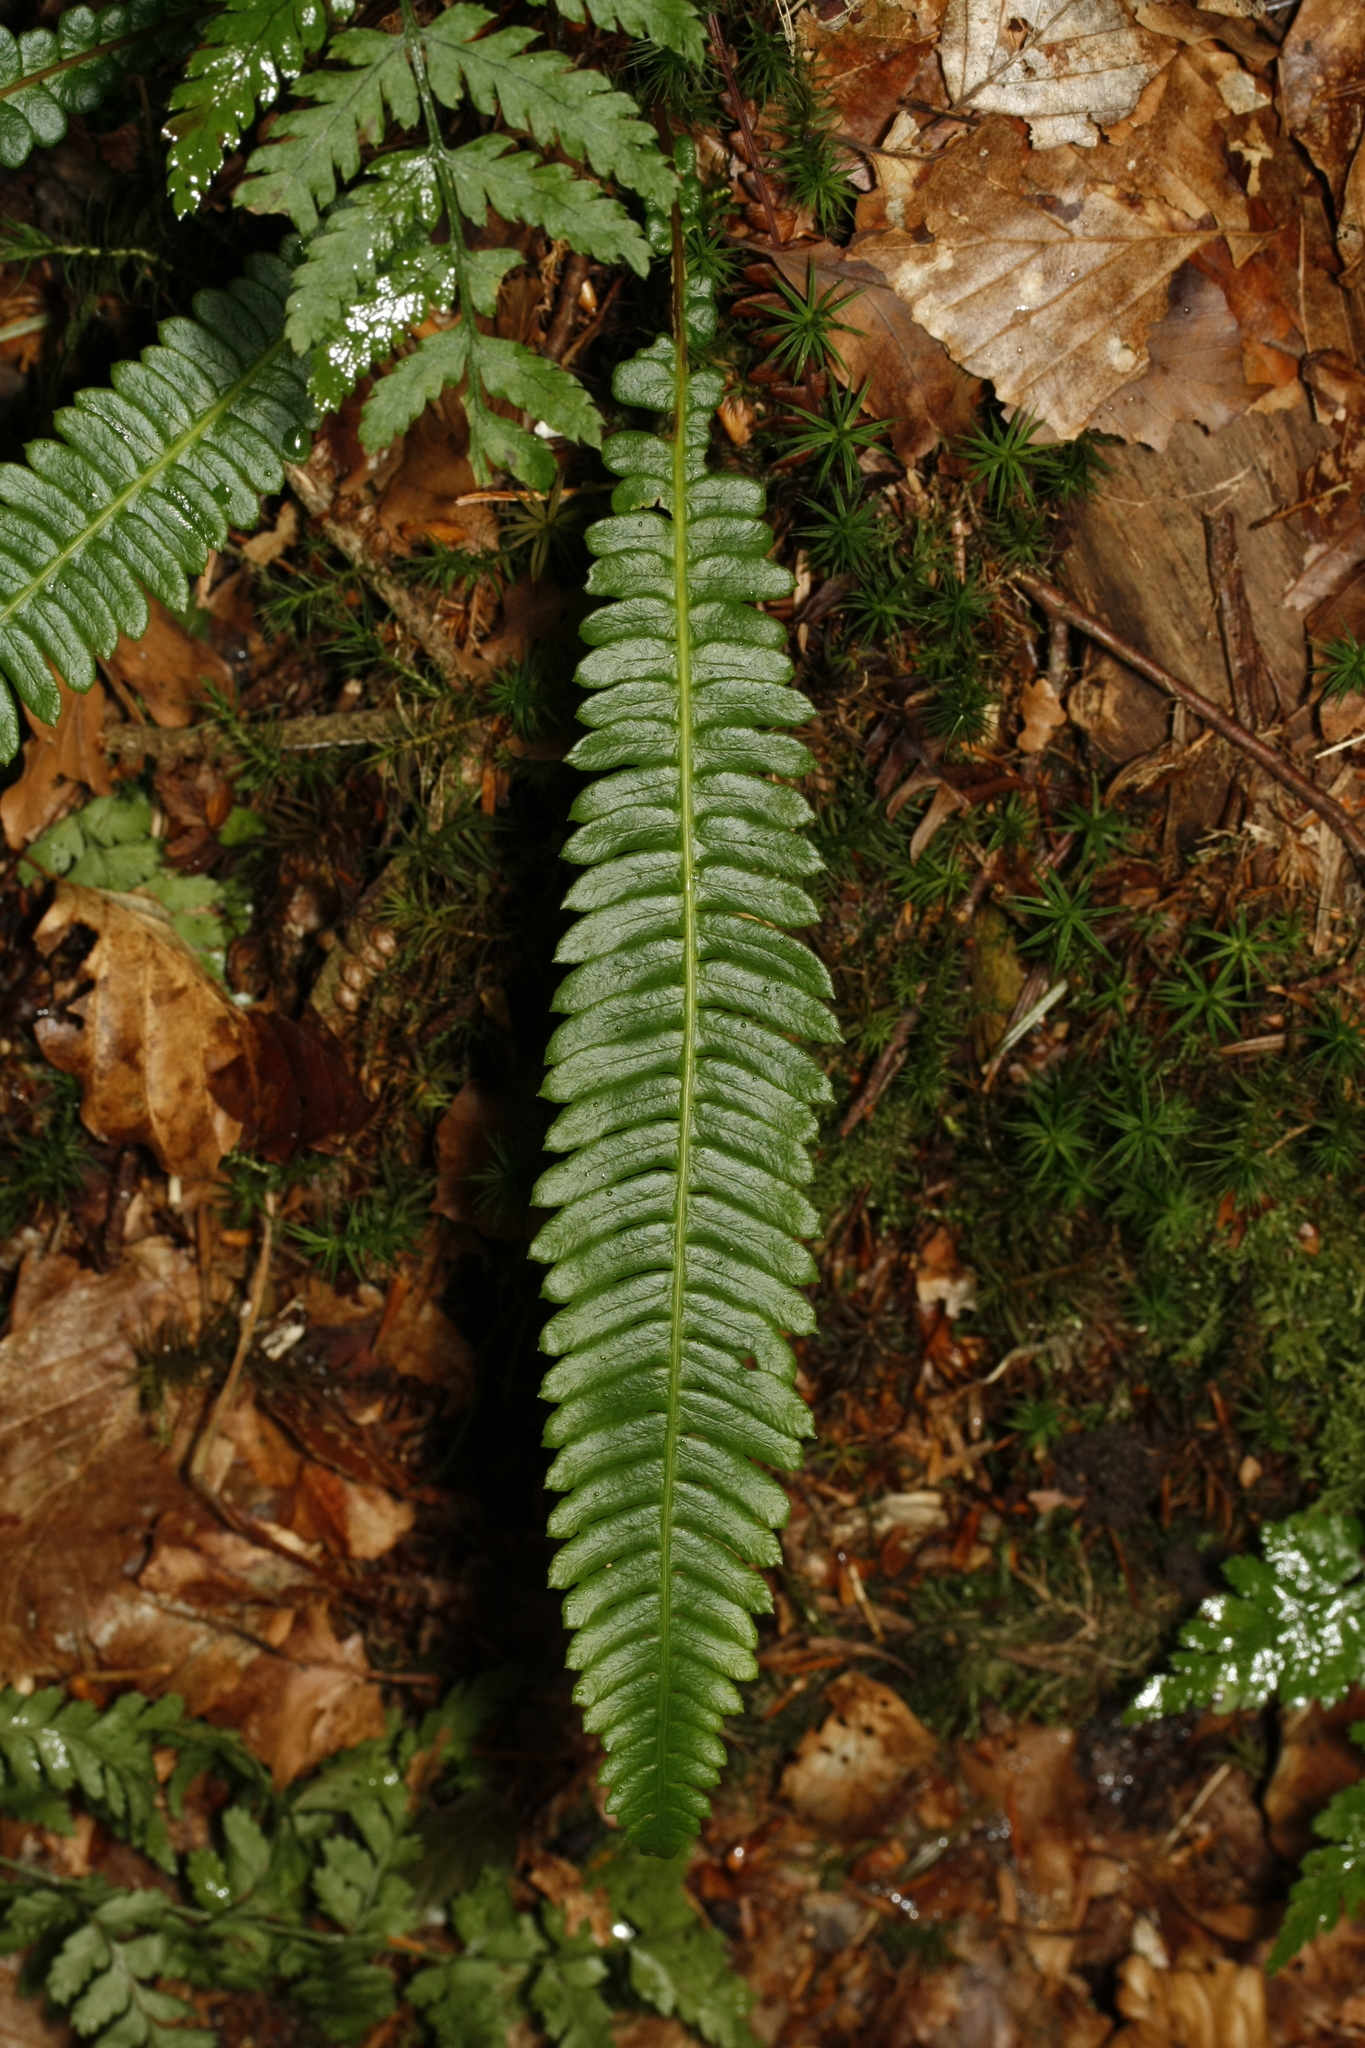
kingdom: Plantae
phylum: Tracheophyta
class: Polypodiopsida
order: Polypodiales
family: Blechnaceae
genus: Struthiopteris
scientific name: Struthiopteris spicant
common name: Deer fern
